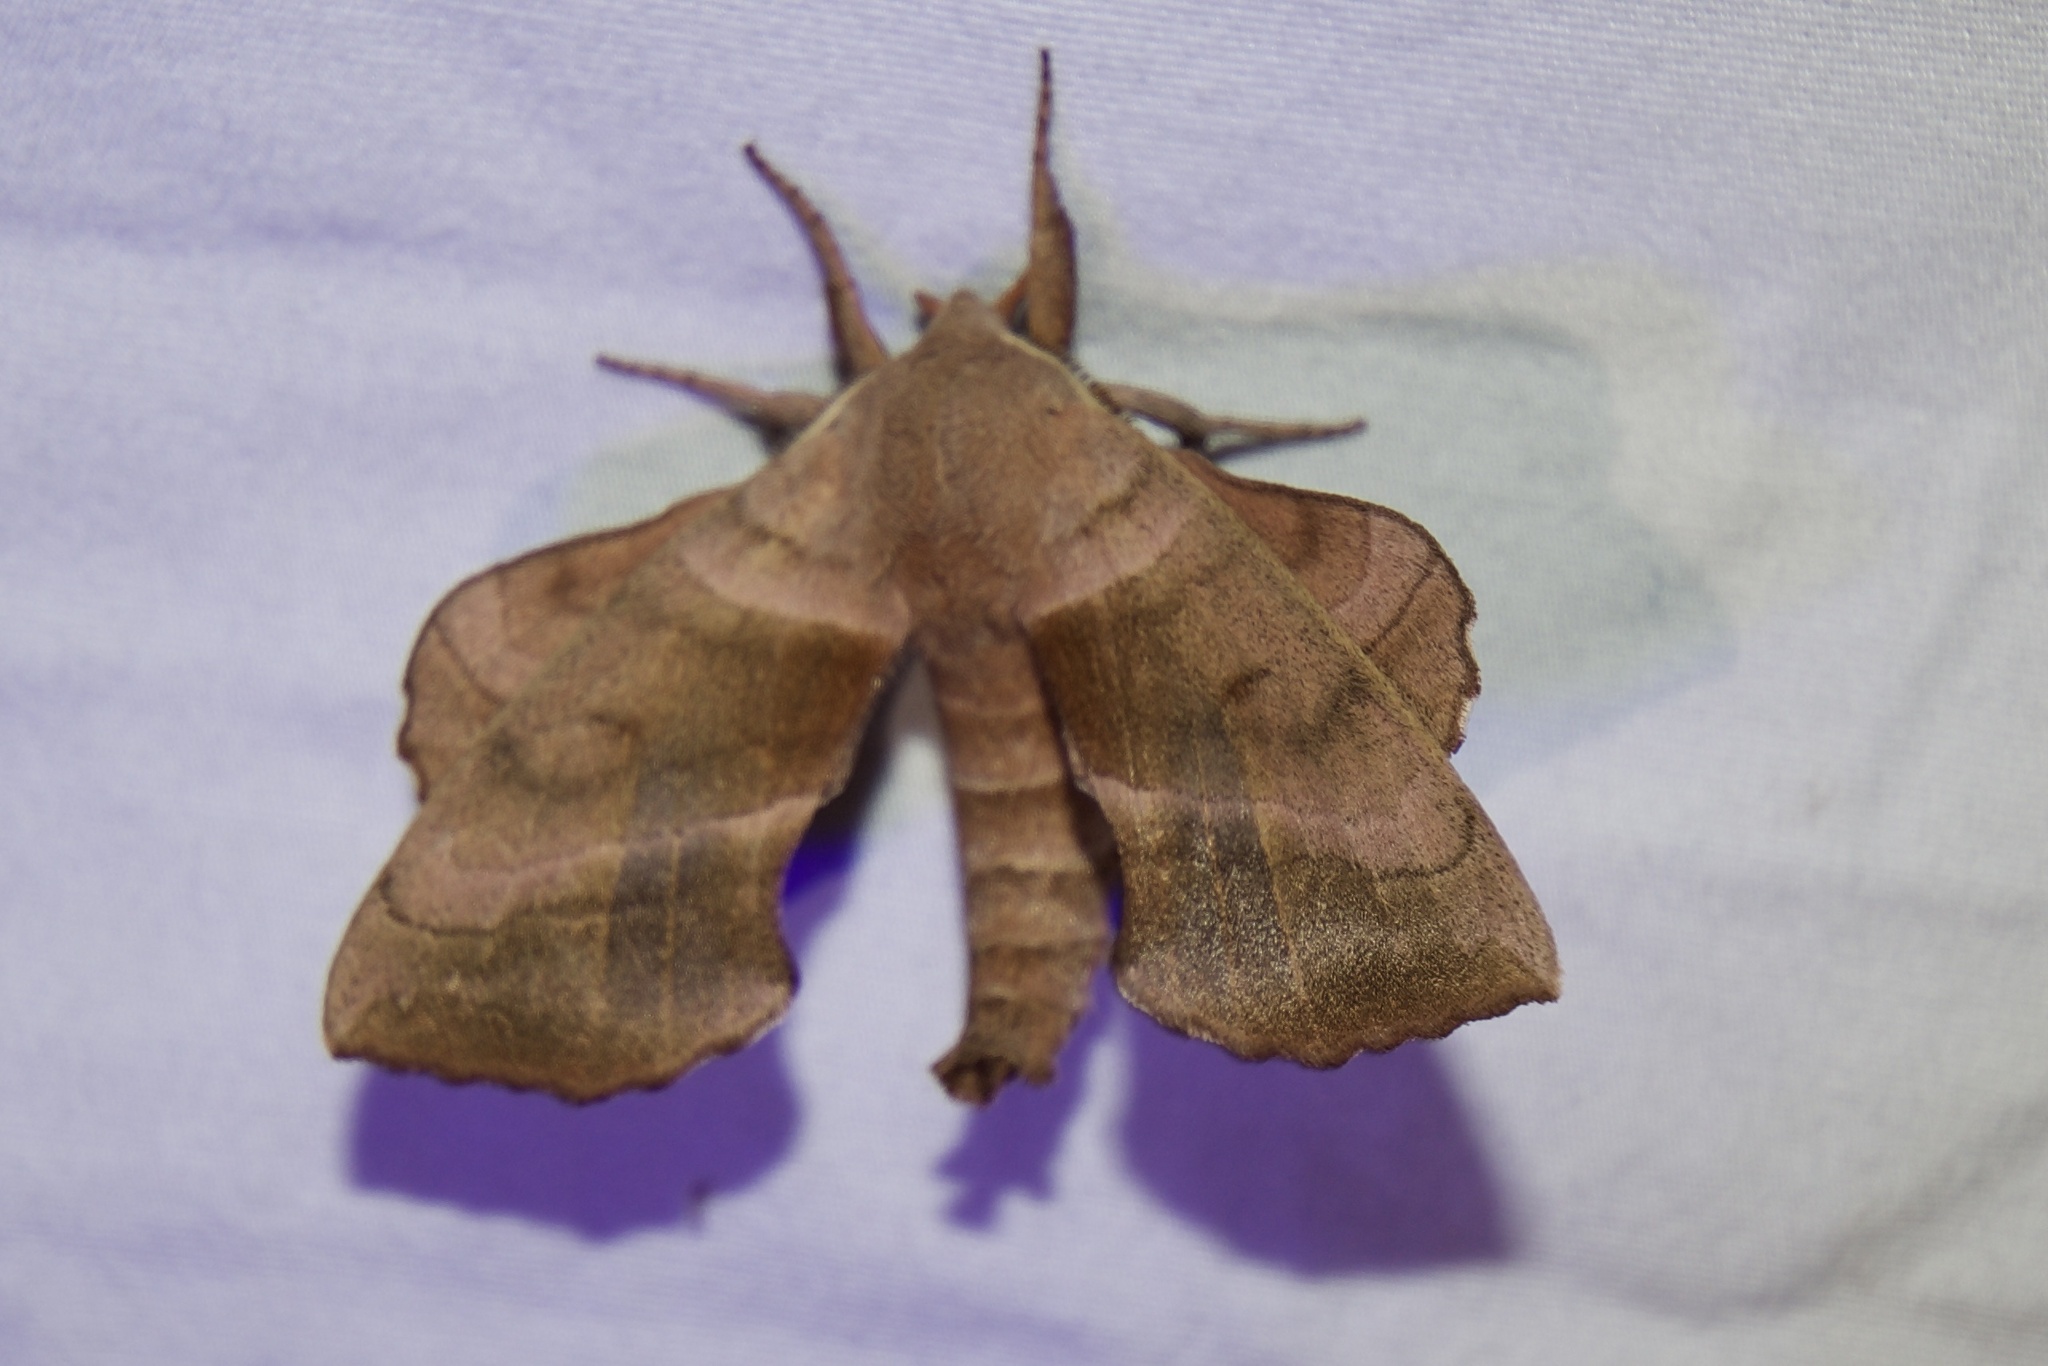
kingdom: Animalia
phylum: Arthropoda
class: Insecta
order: Lepidoptera
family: Sphingidae
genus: Amorpha
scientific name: Amorpha juglandis
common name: Walnut sphinx
